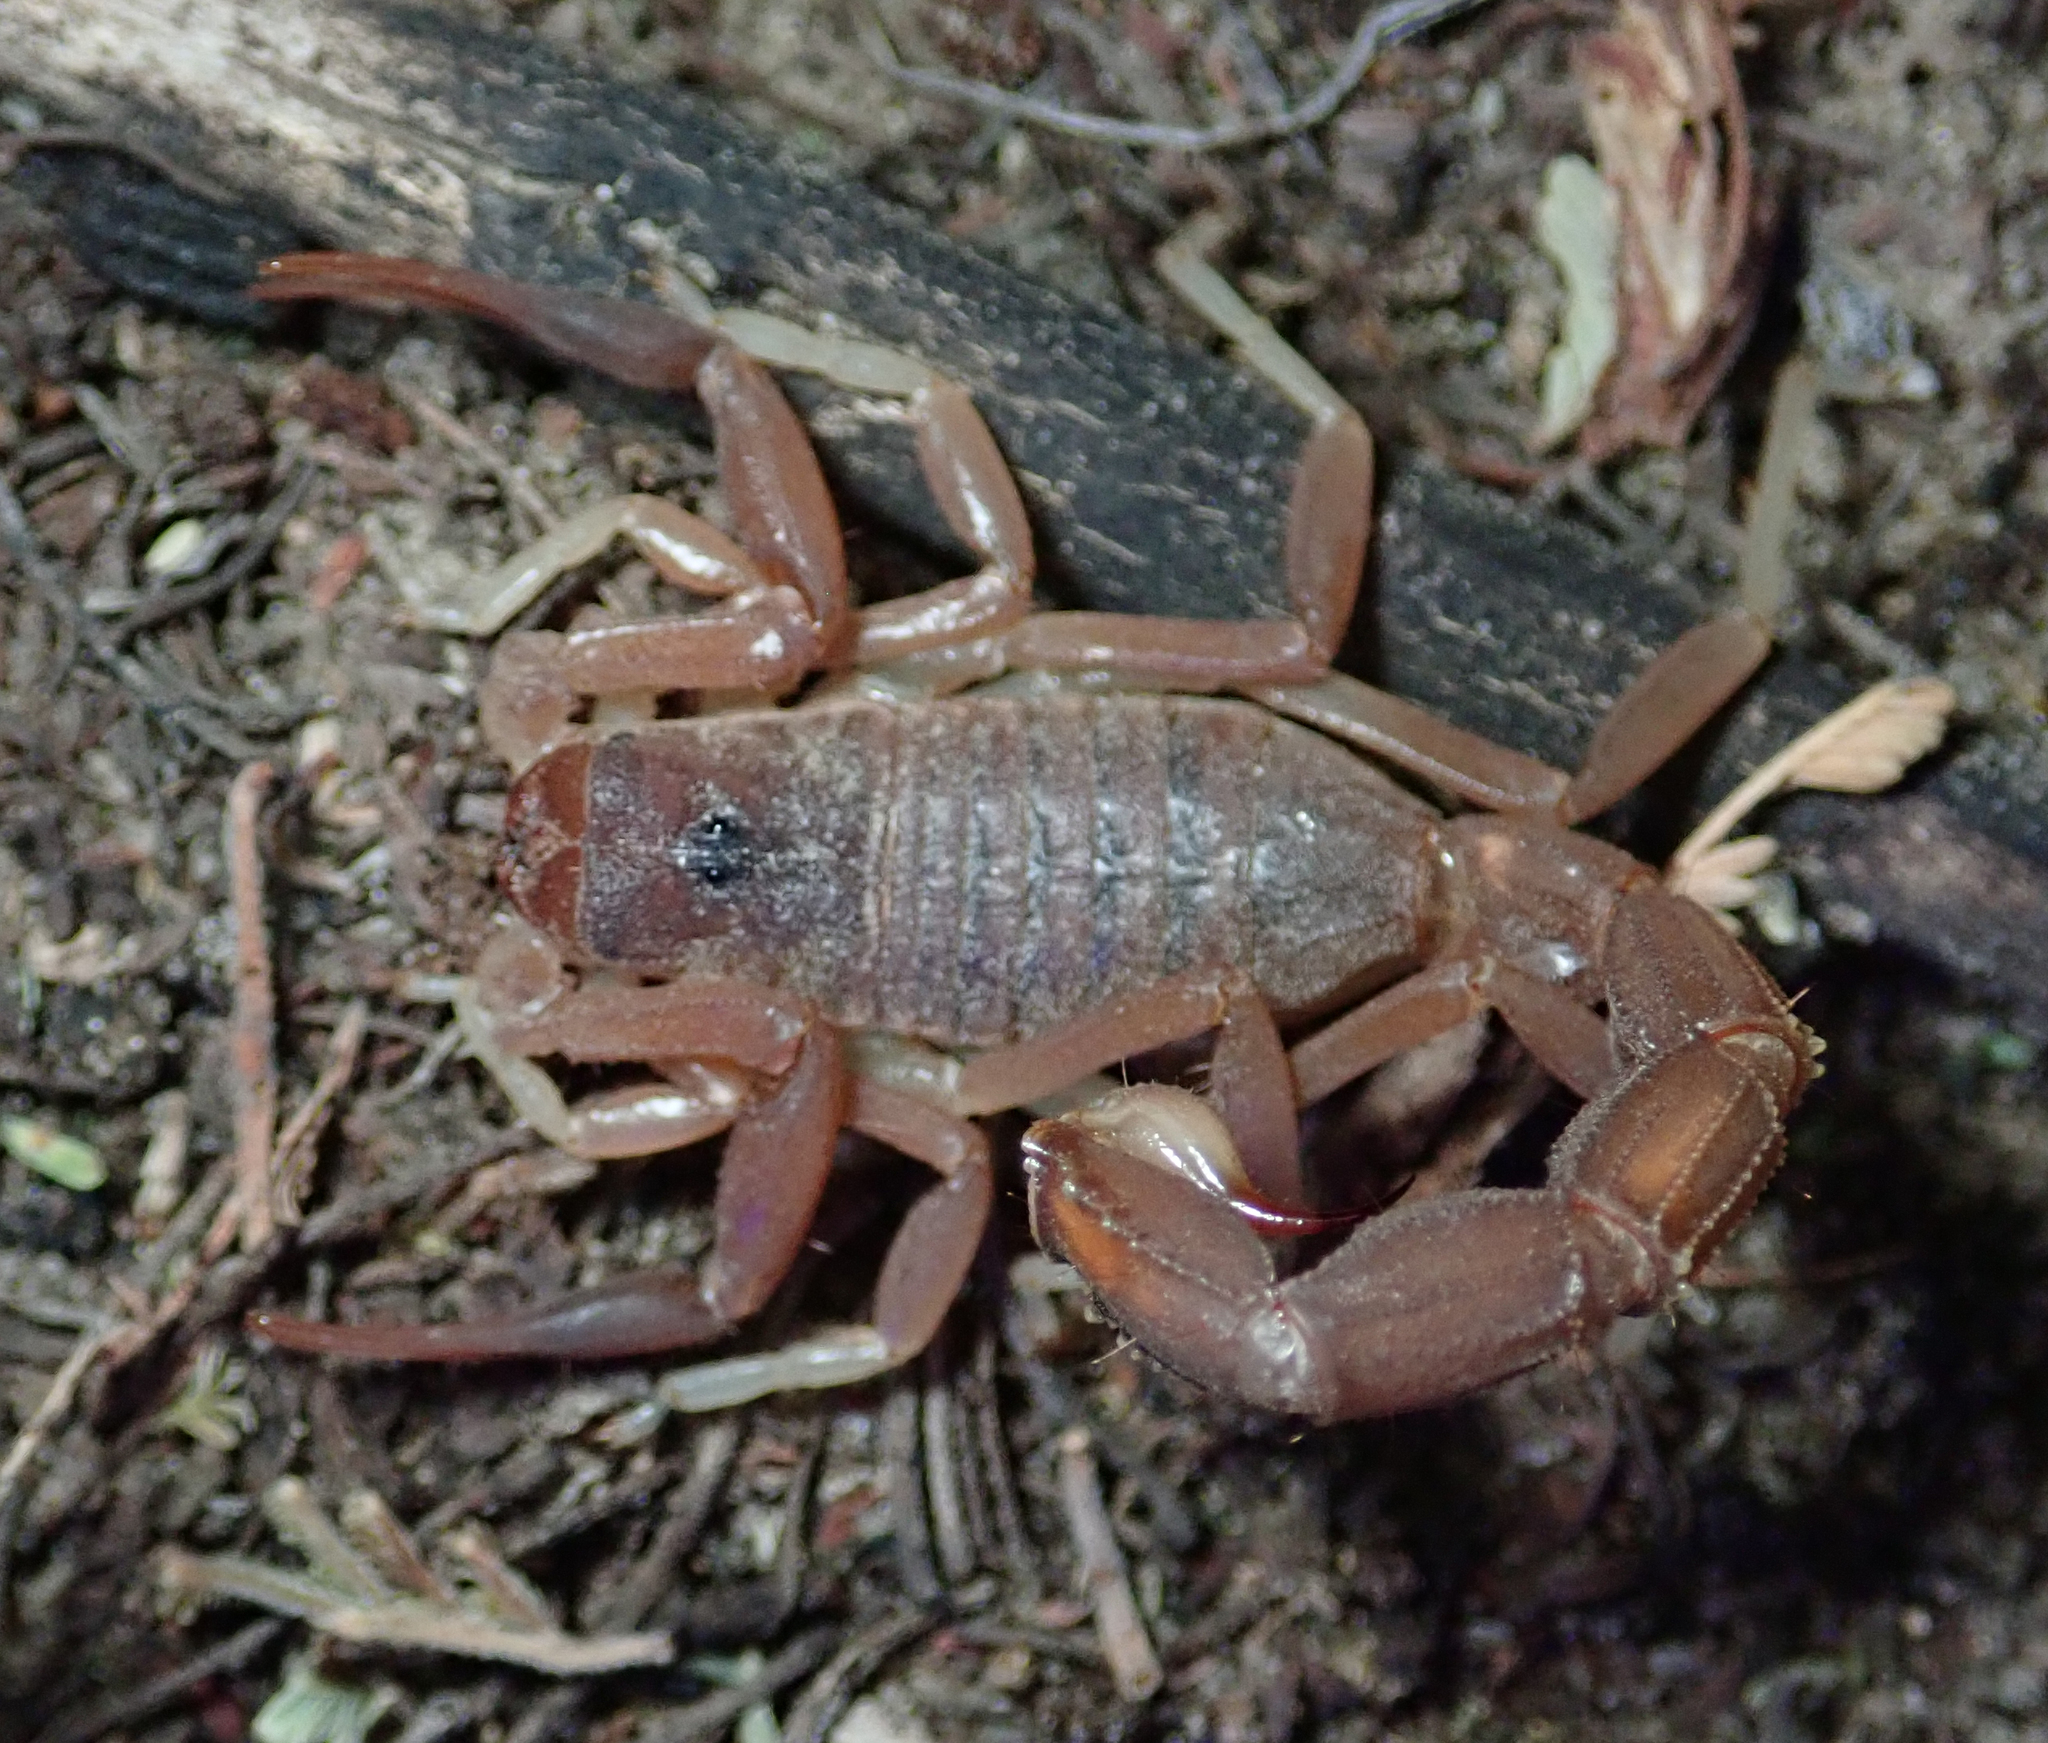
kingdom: Animalia
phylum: Arthropoda
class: Arachnida
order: Scorpiones
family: Buthidae
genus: Parabuthus
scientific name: Parabuthus granulatus
